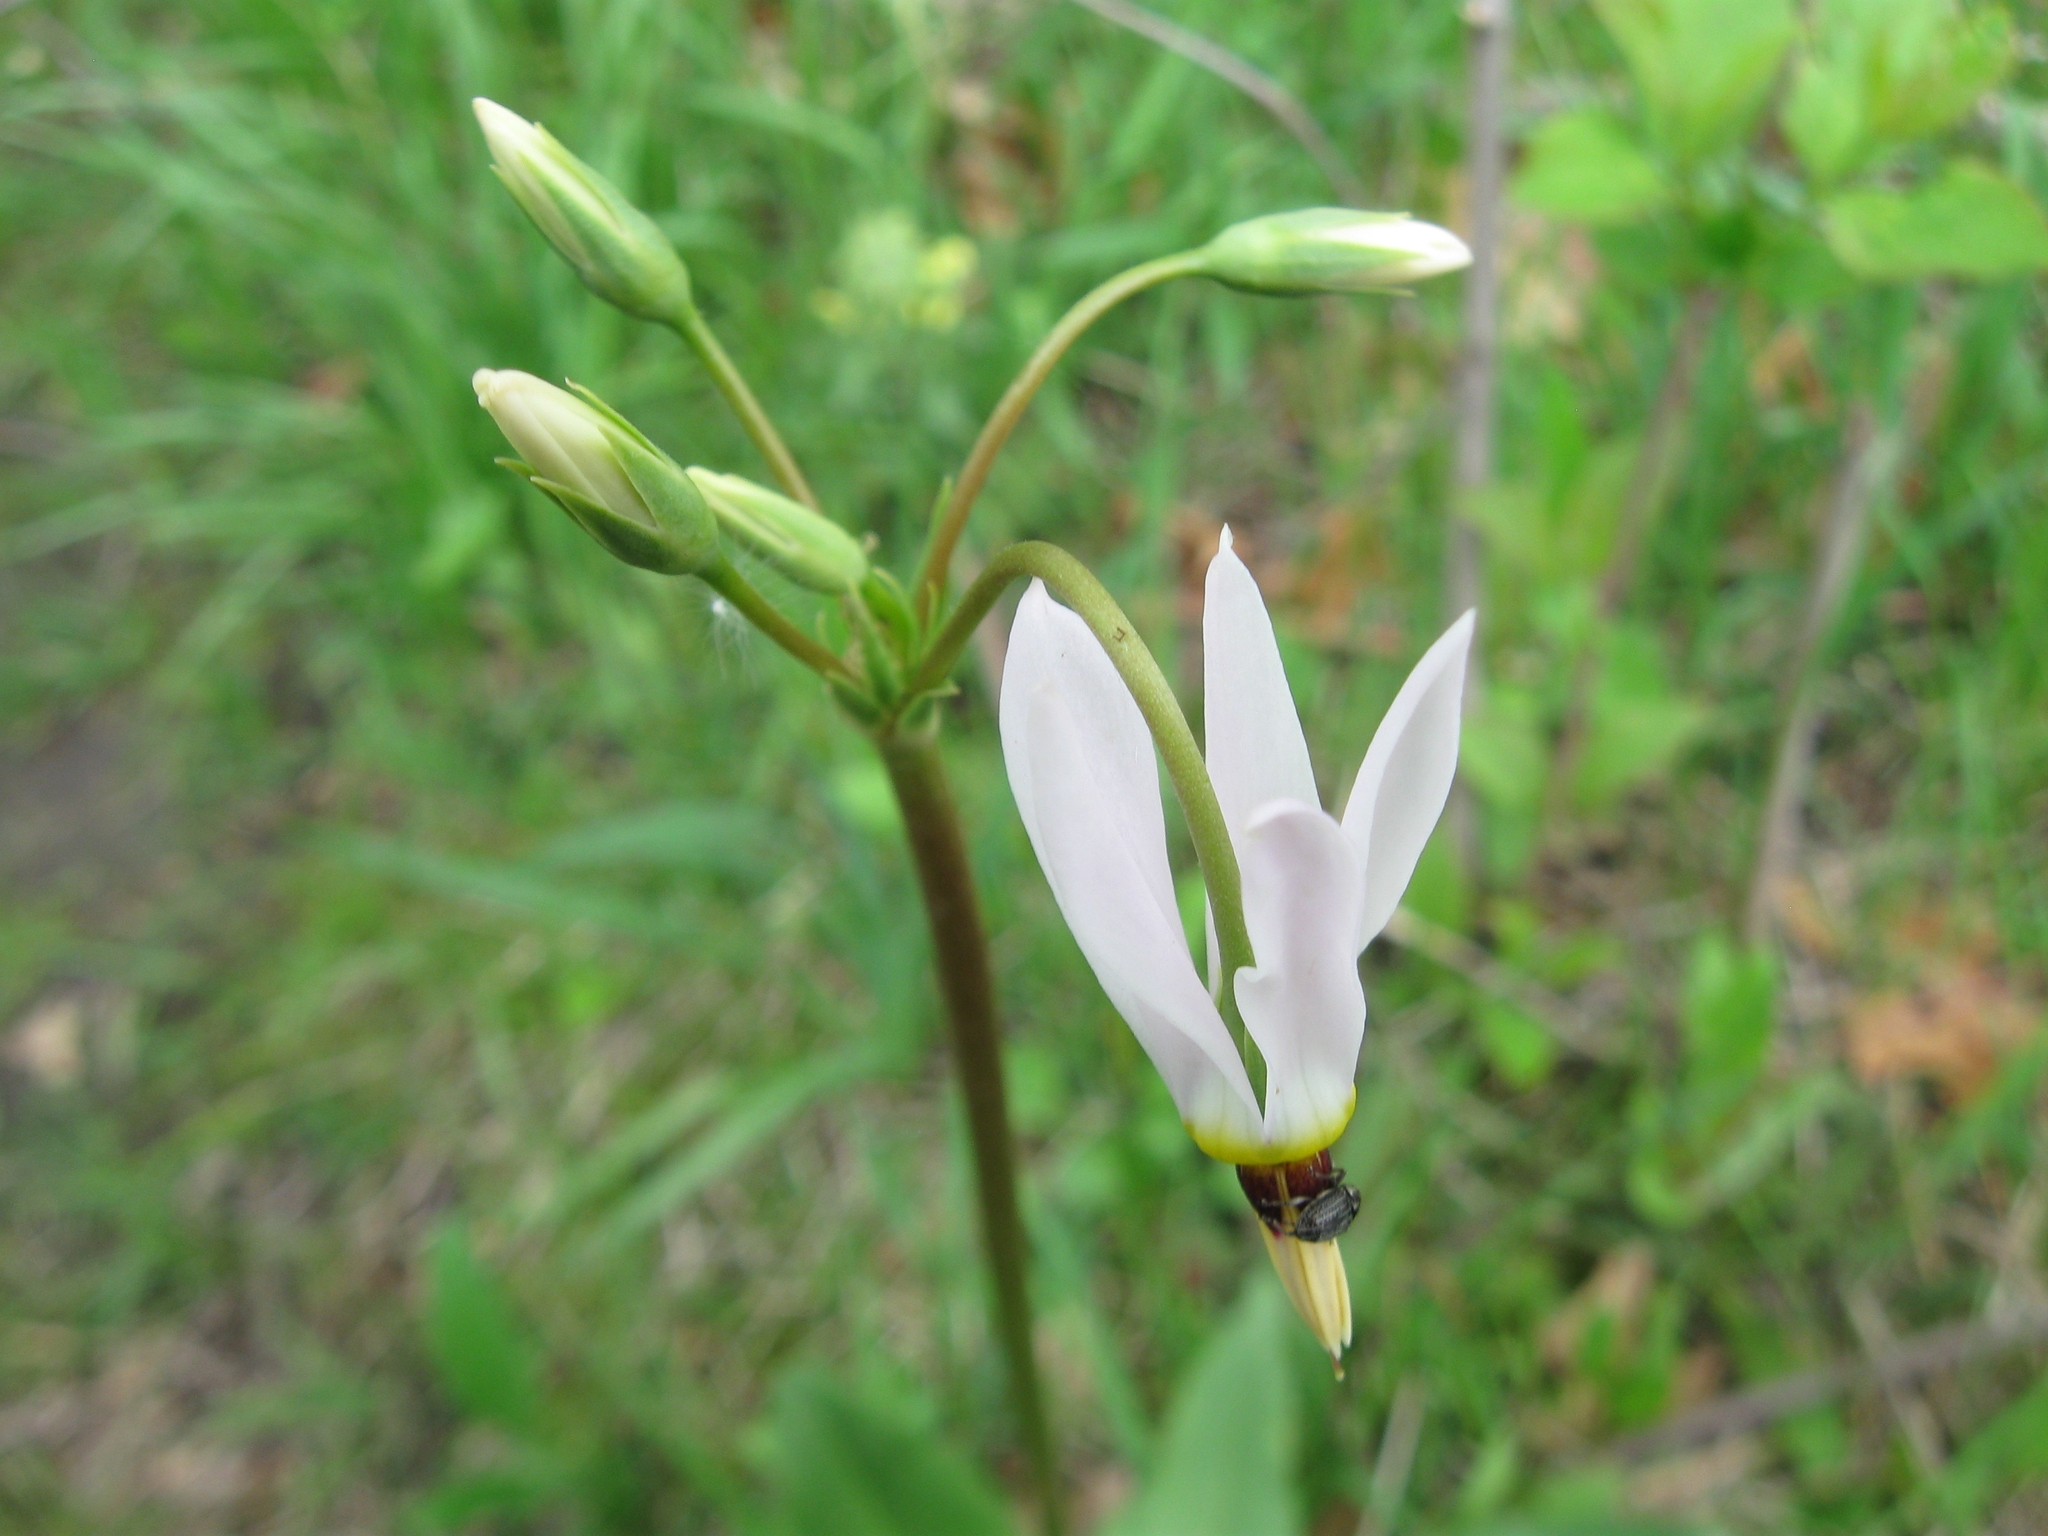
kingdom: Plantae
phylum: Tracheophyta
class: Magnoliopsida
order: Ericales
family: Primulaceae
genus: Dodecatheon
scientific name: Dodecatheon meadia
